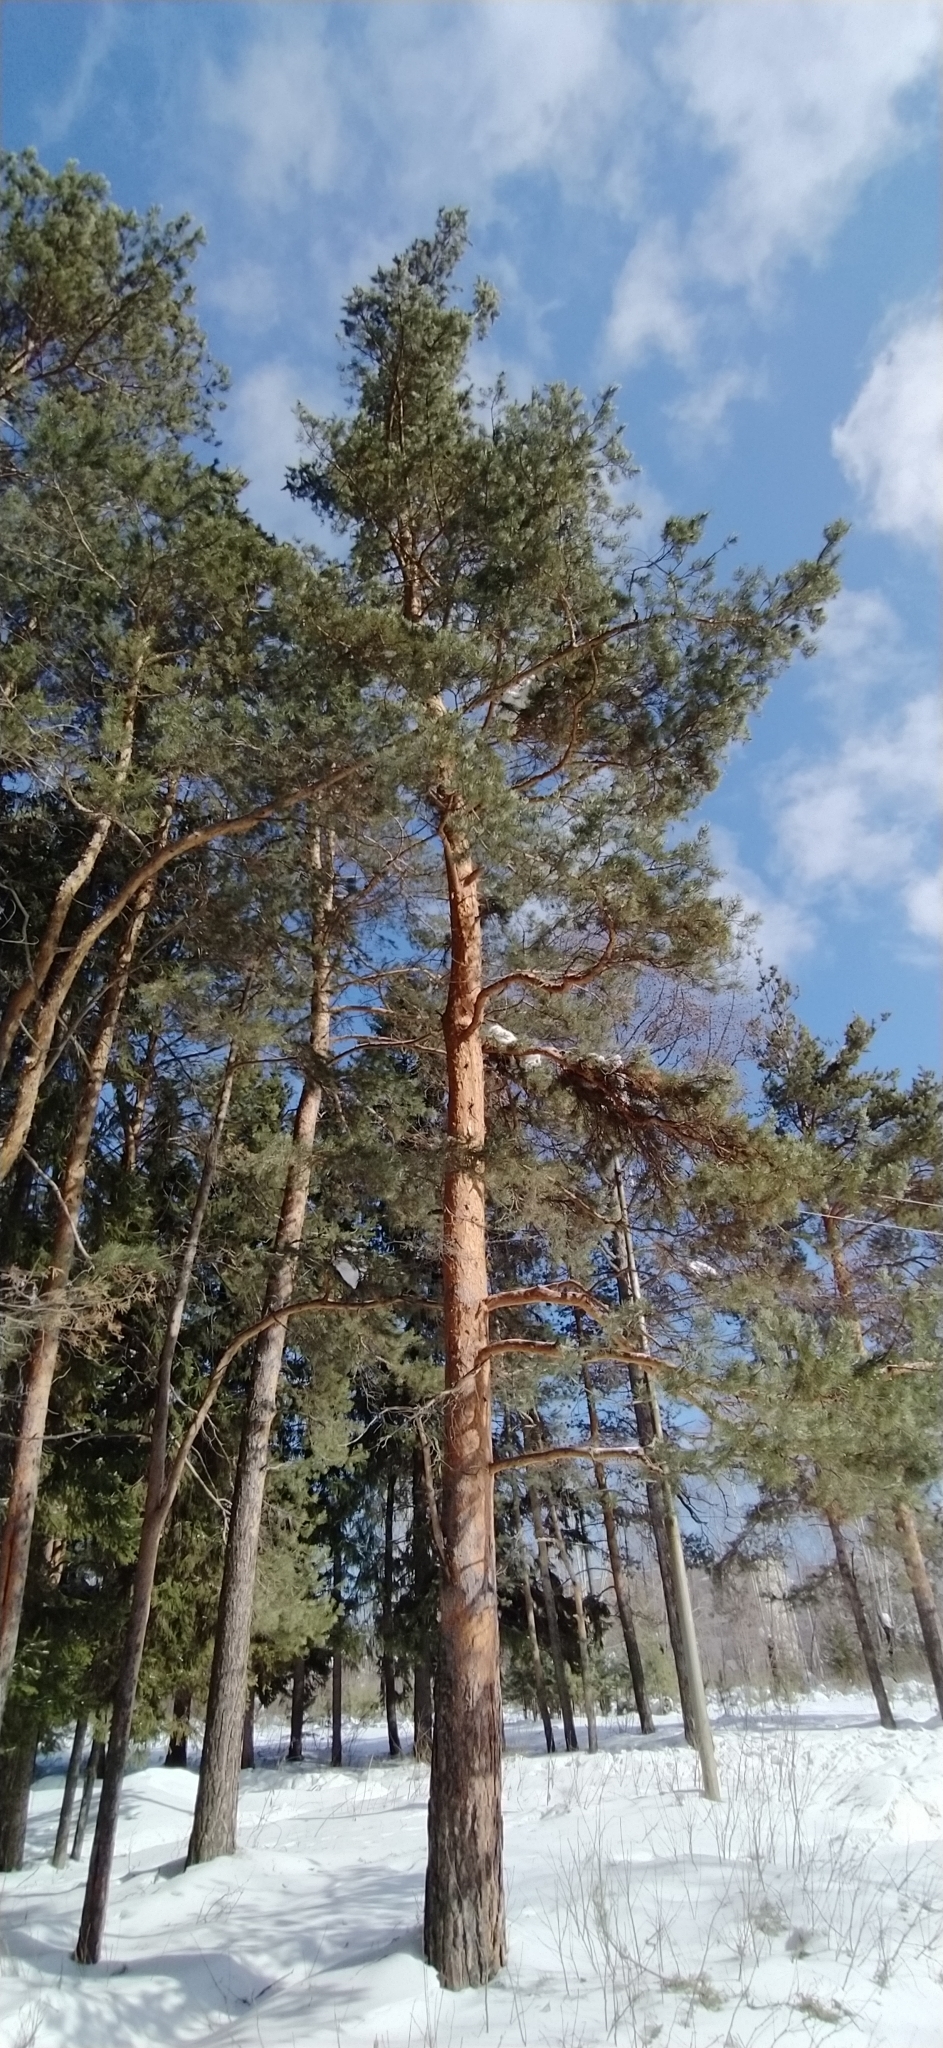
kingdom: Plantae
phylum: Tracheophyta
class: Pinopsida
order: Pinales
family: Pinaceae
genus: Pinus
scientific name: Pinus sylvestris
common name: Scots pine
